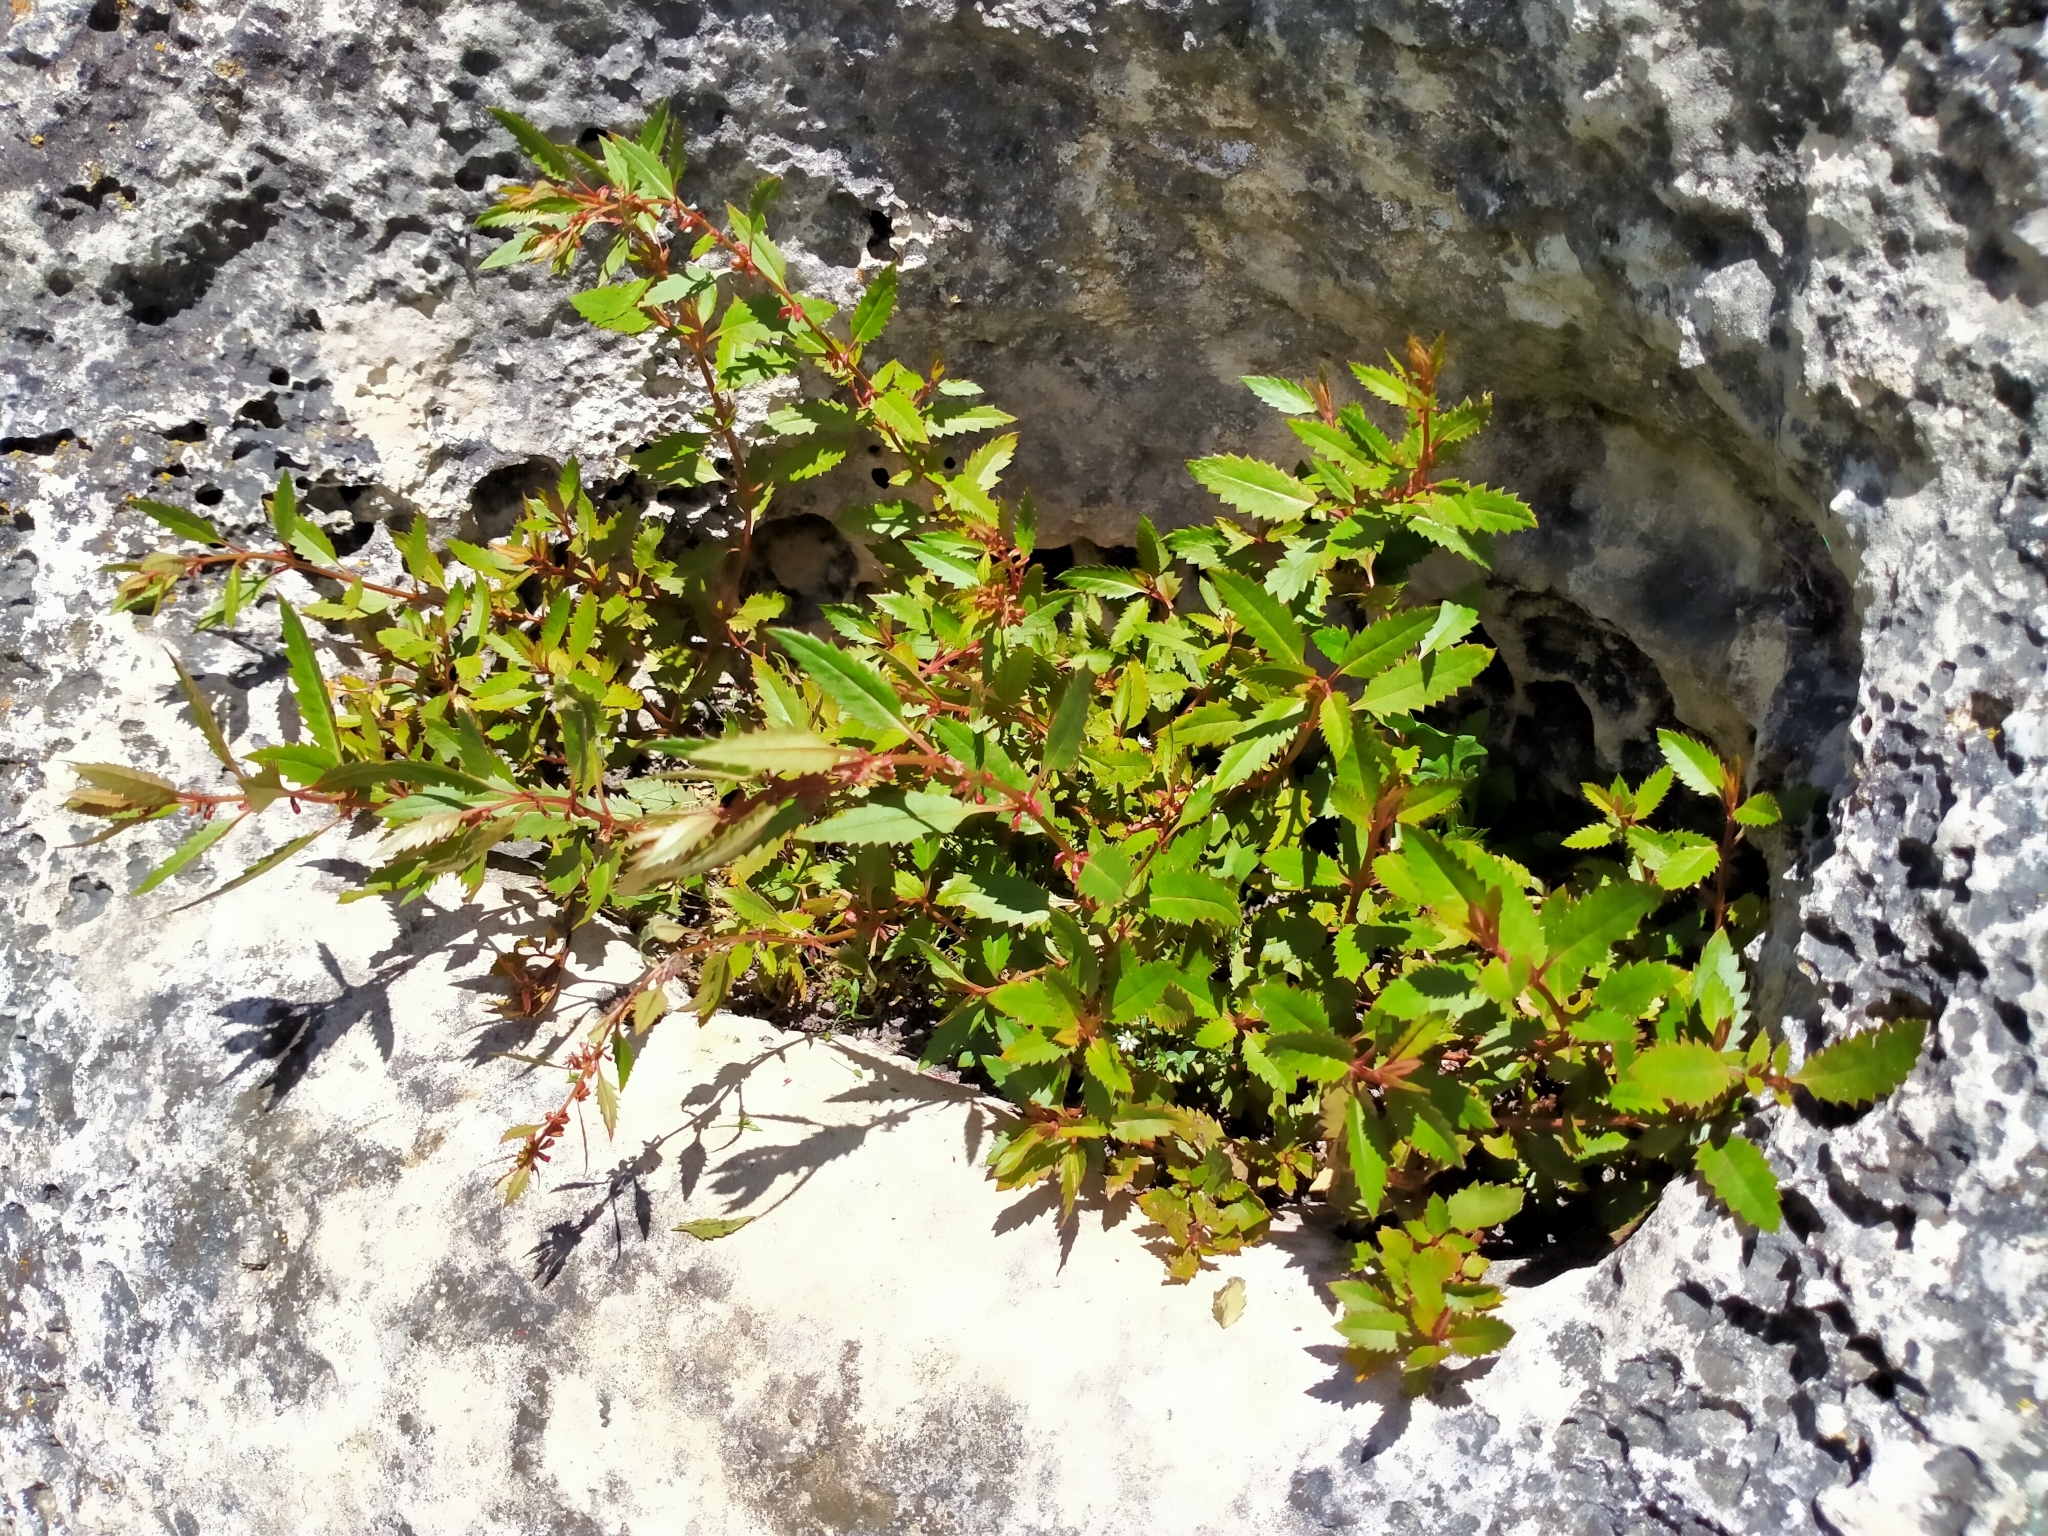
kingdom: Plantae
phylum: Tracheophyta
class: Magnoliopsida
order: Saxifragales
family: Haloragaceae
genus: Haloragis
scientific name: Haloragis erecta
